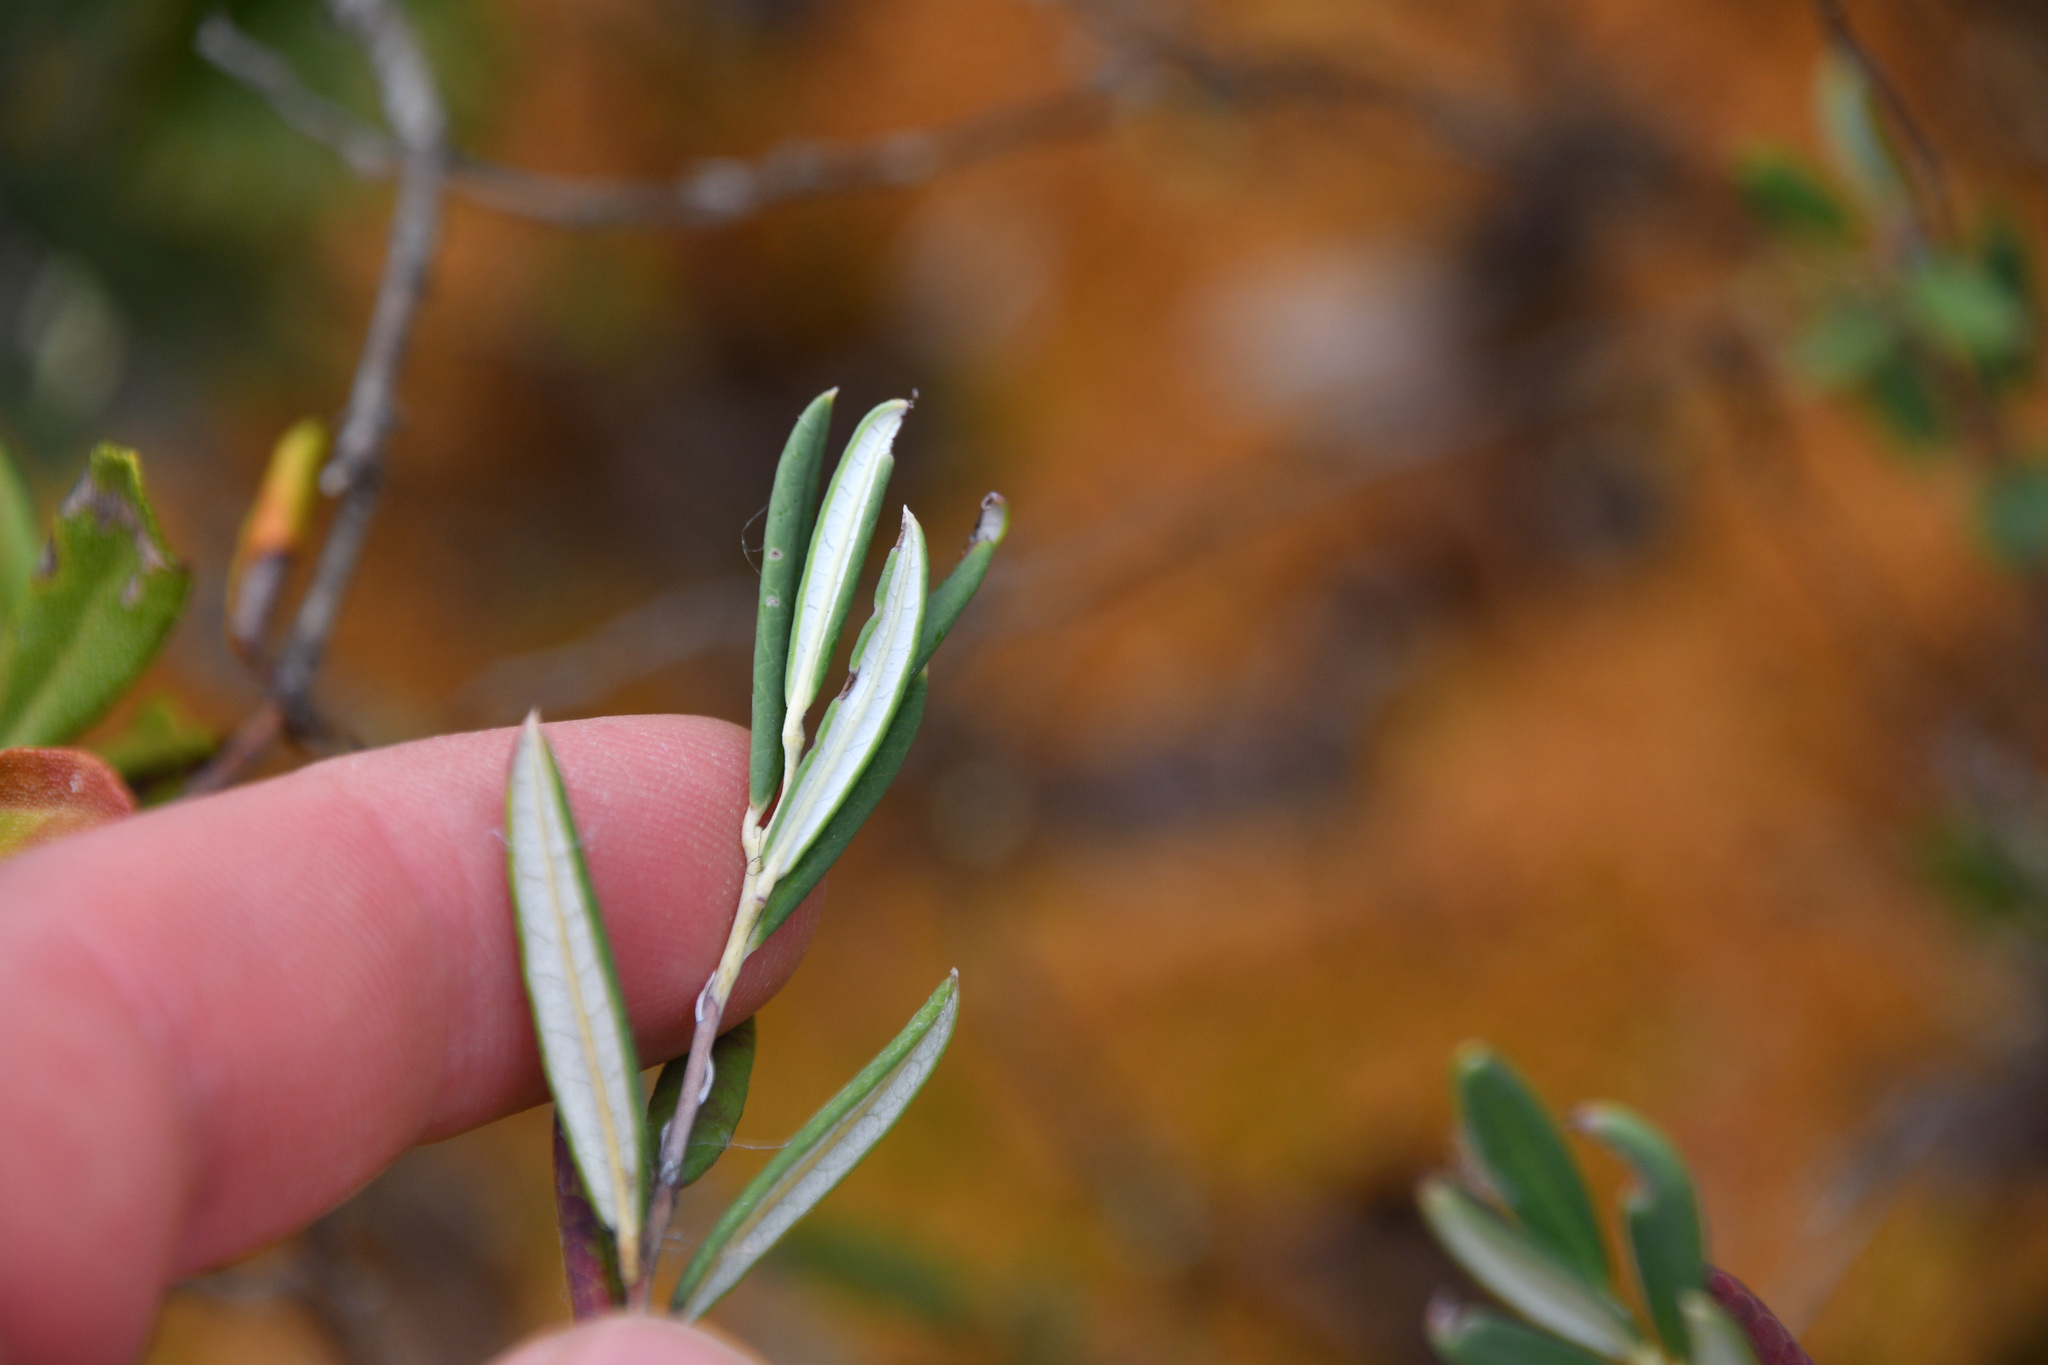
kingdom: Plantae
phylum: Tracheophyta
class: Magnoliopsida
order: Ericales
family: Ericaceae
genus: Andromeda
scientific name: Andromeda polifolia
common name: Bog-rosemary
